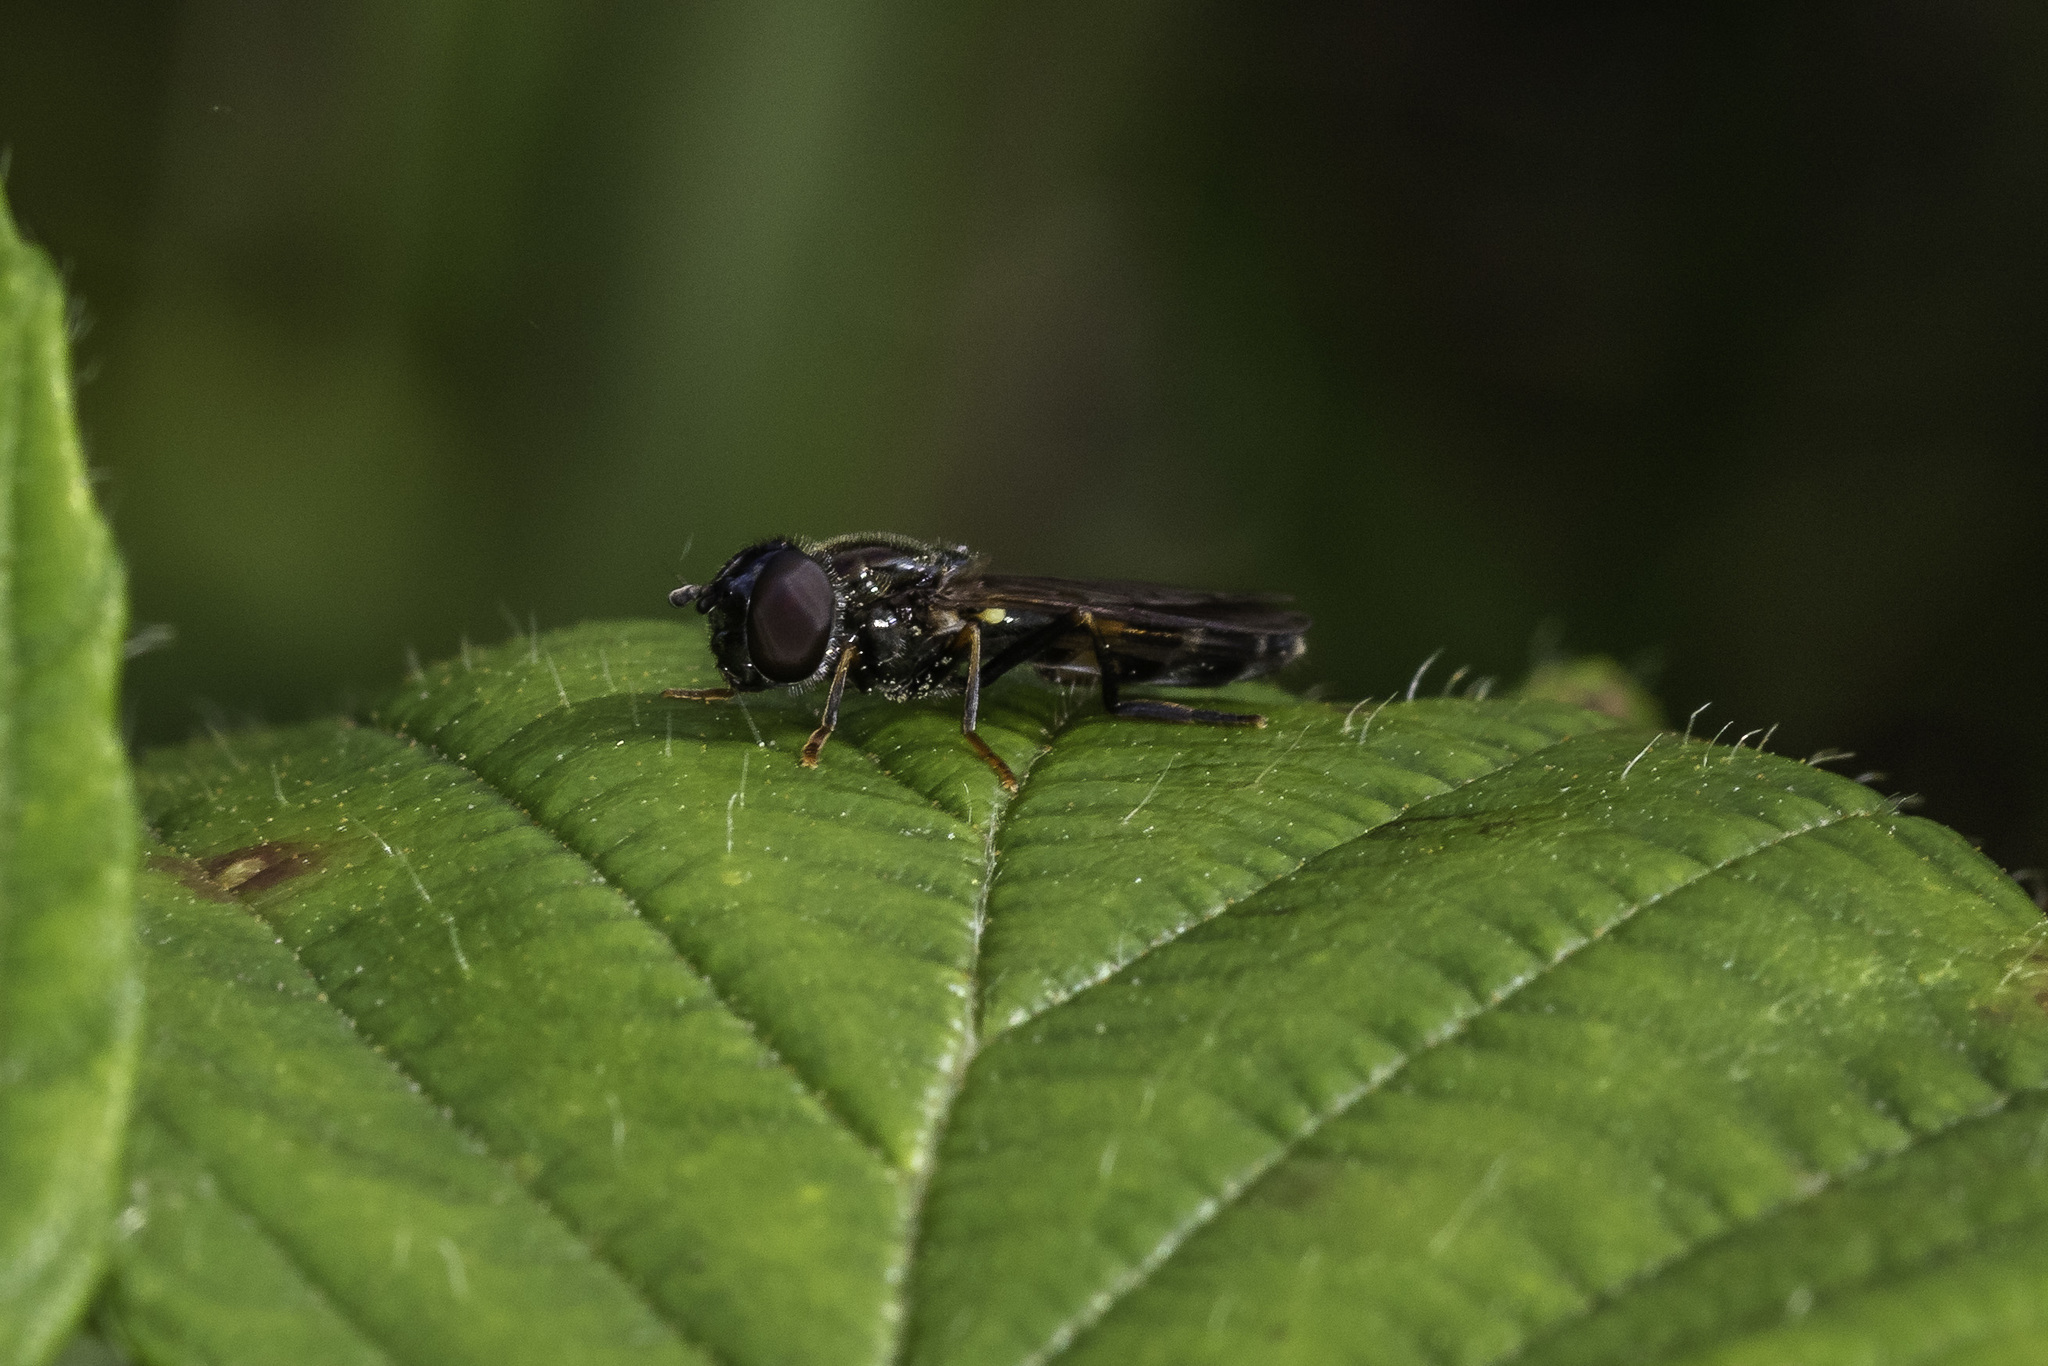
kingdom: Animalia
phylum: Arthropoda
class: Insecta
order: Diptera
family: Syrphidae
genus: Pyrophaena
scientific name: Pyrophaena rosarum
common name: Fourspot sedgesitter
